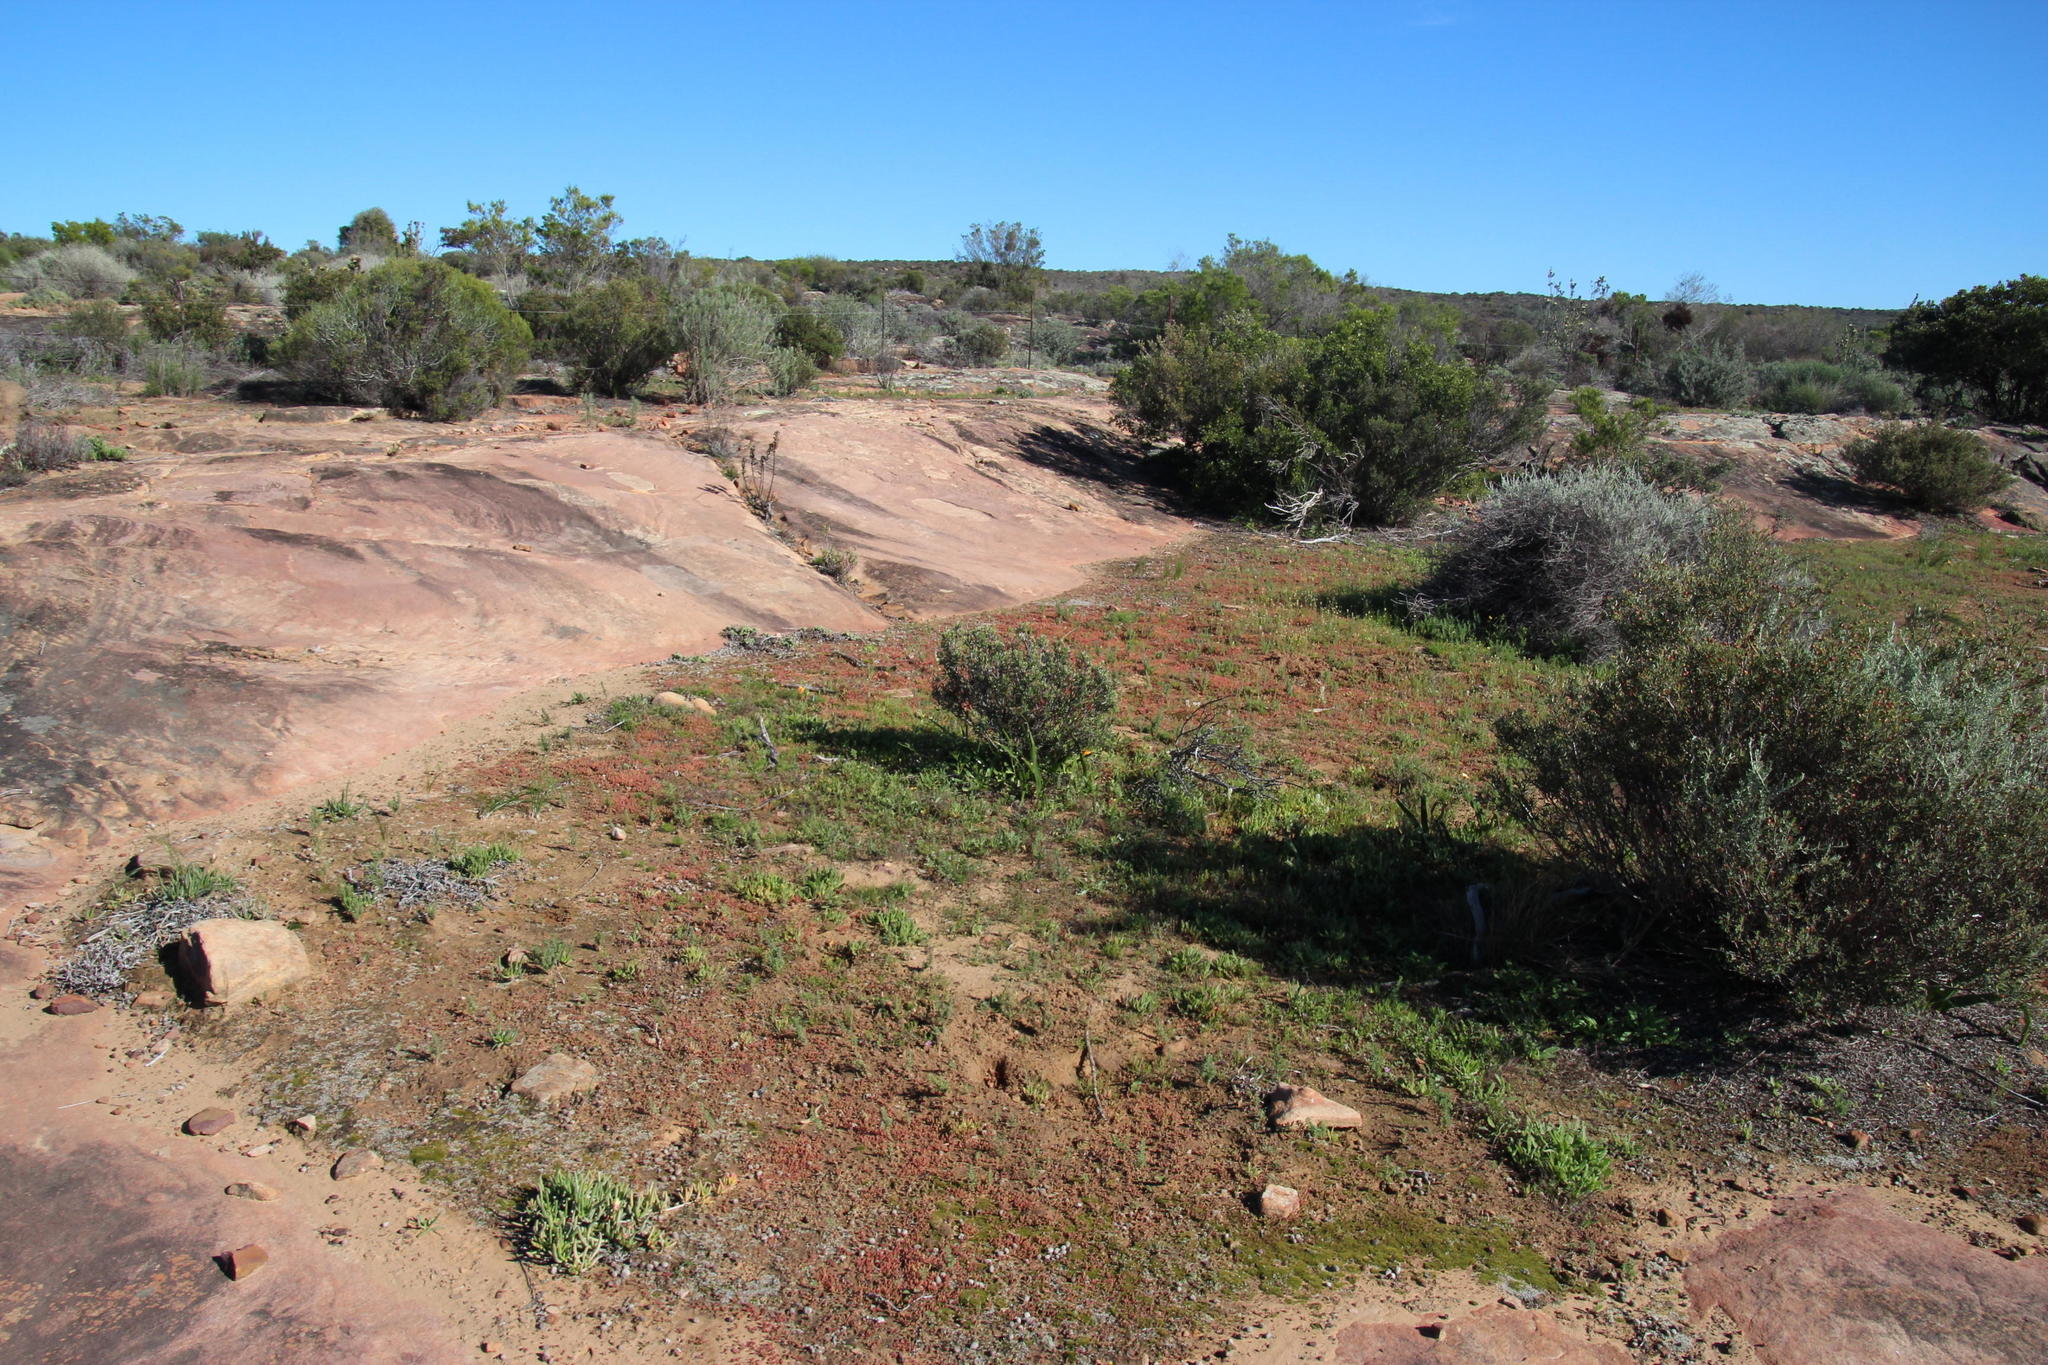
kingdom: Plantae
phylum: Tracheophyta
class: Magnoliopsida
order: Saxifragales
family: Crassulaceae
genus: Crassula
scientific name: Crassula thunbergiana
